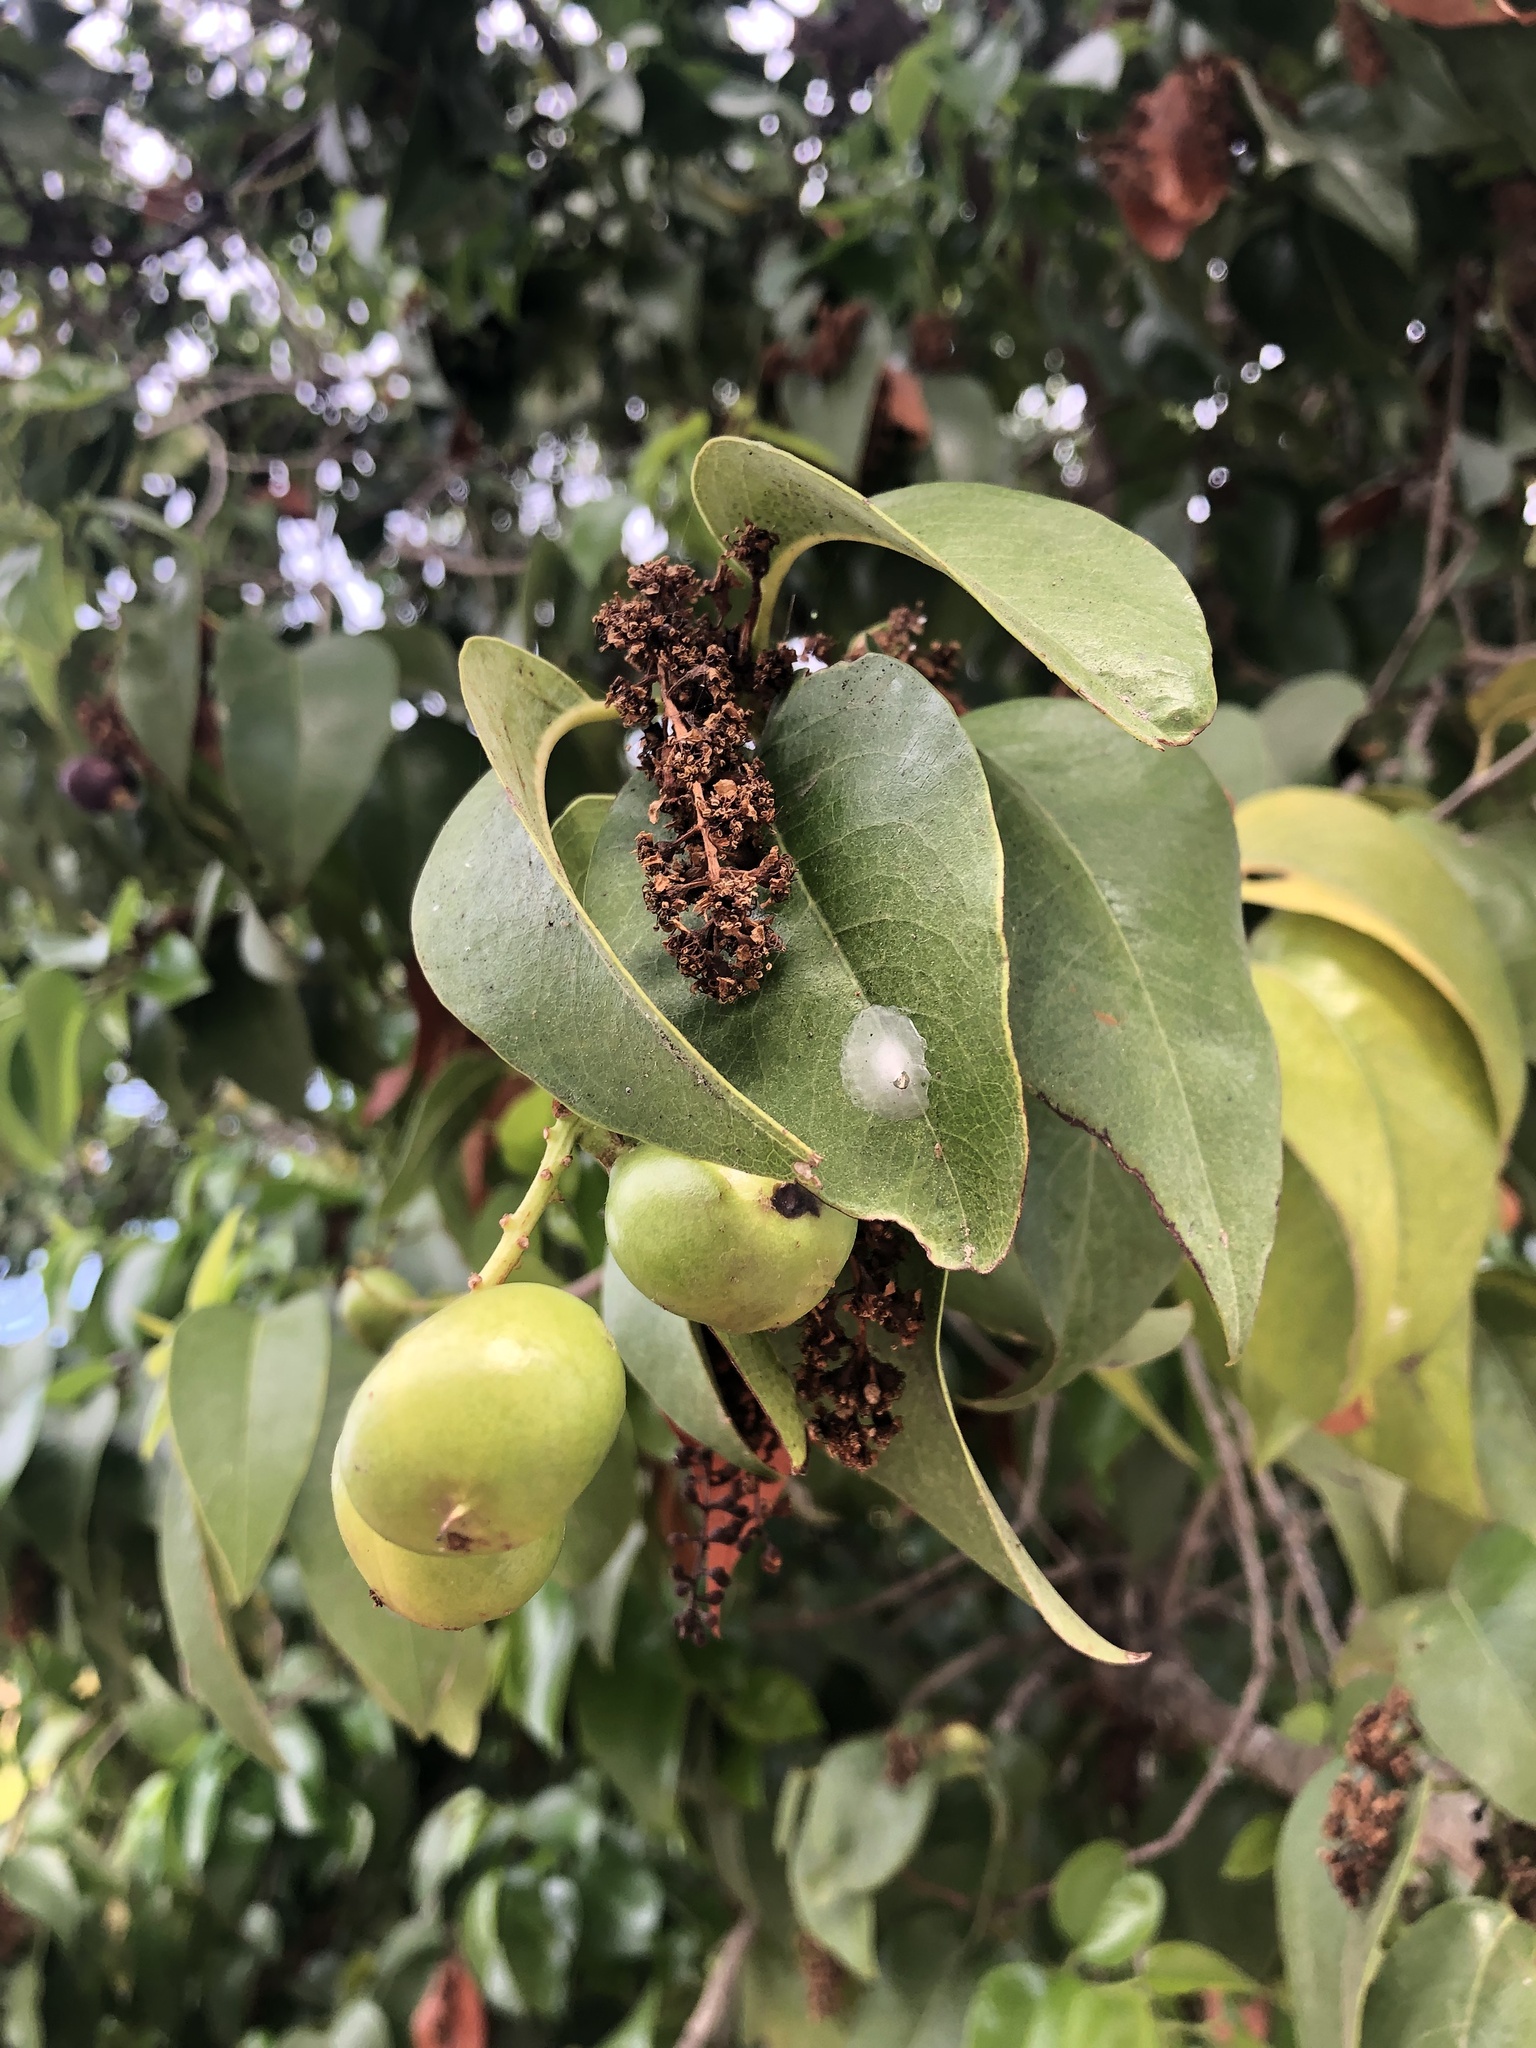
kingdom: Plantae
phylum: Tracheophyta
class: Magnoliopsida
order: Rosales
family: Rosaceae
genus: Prunus
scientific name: Prunus ilicifolia
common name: Hollyleaf cherry
